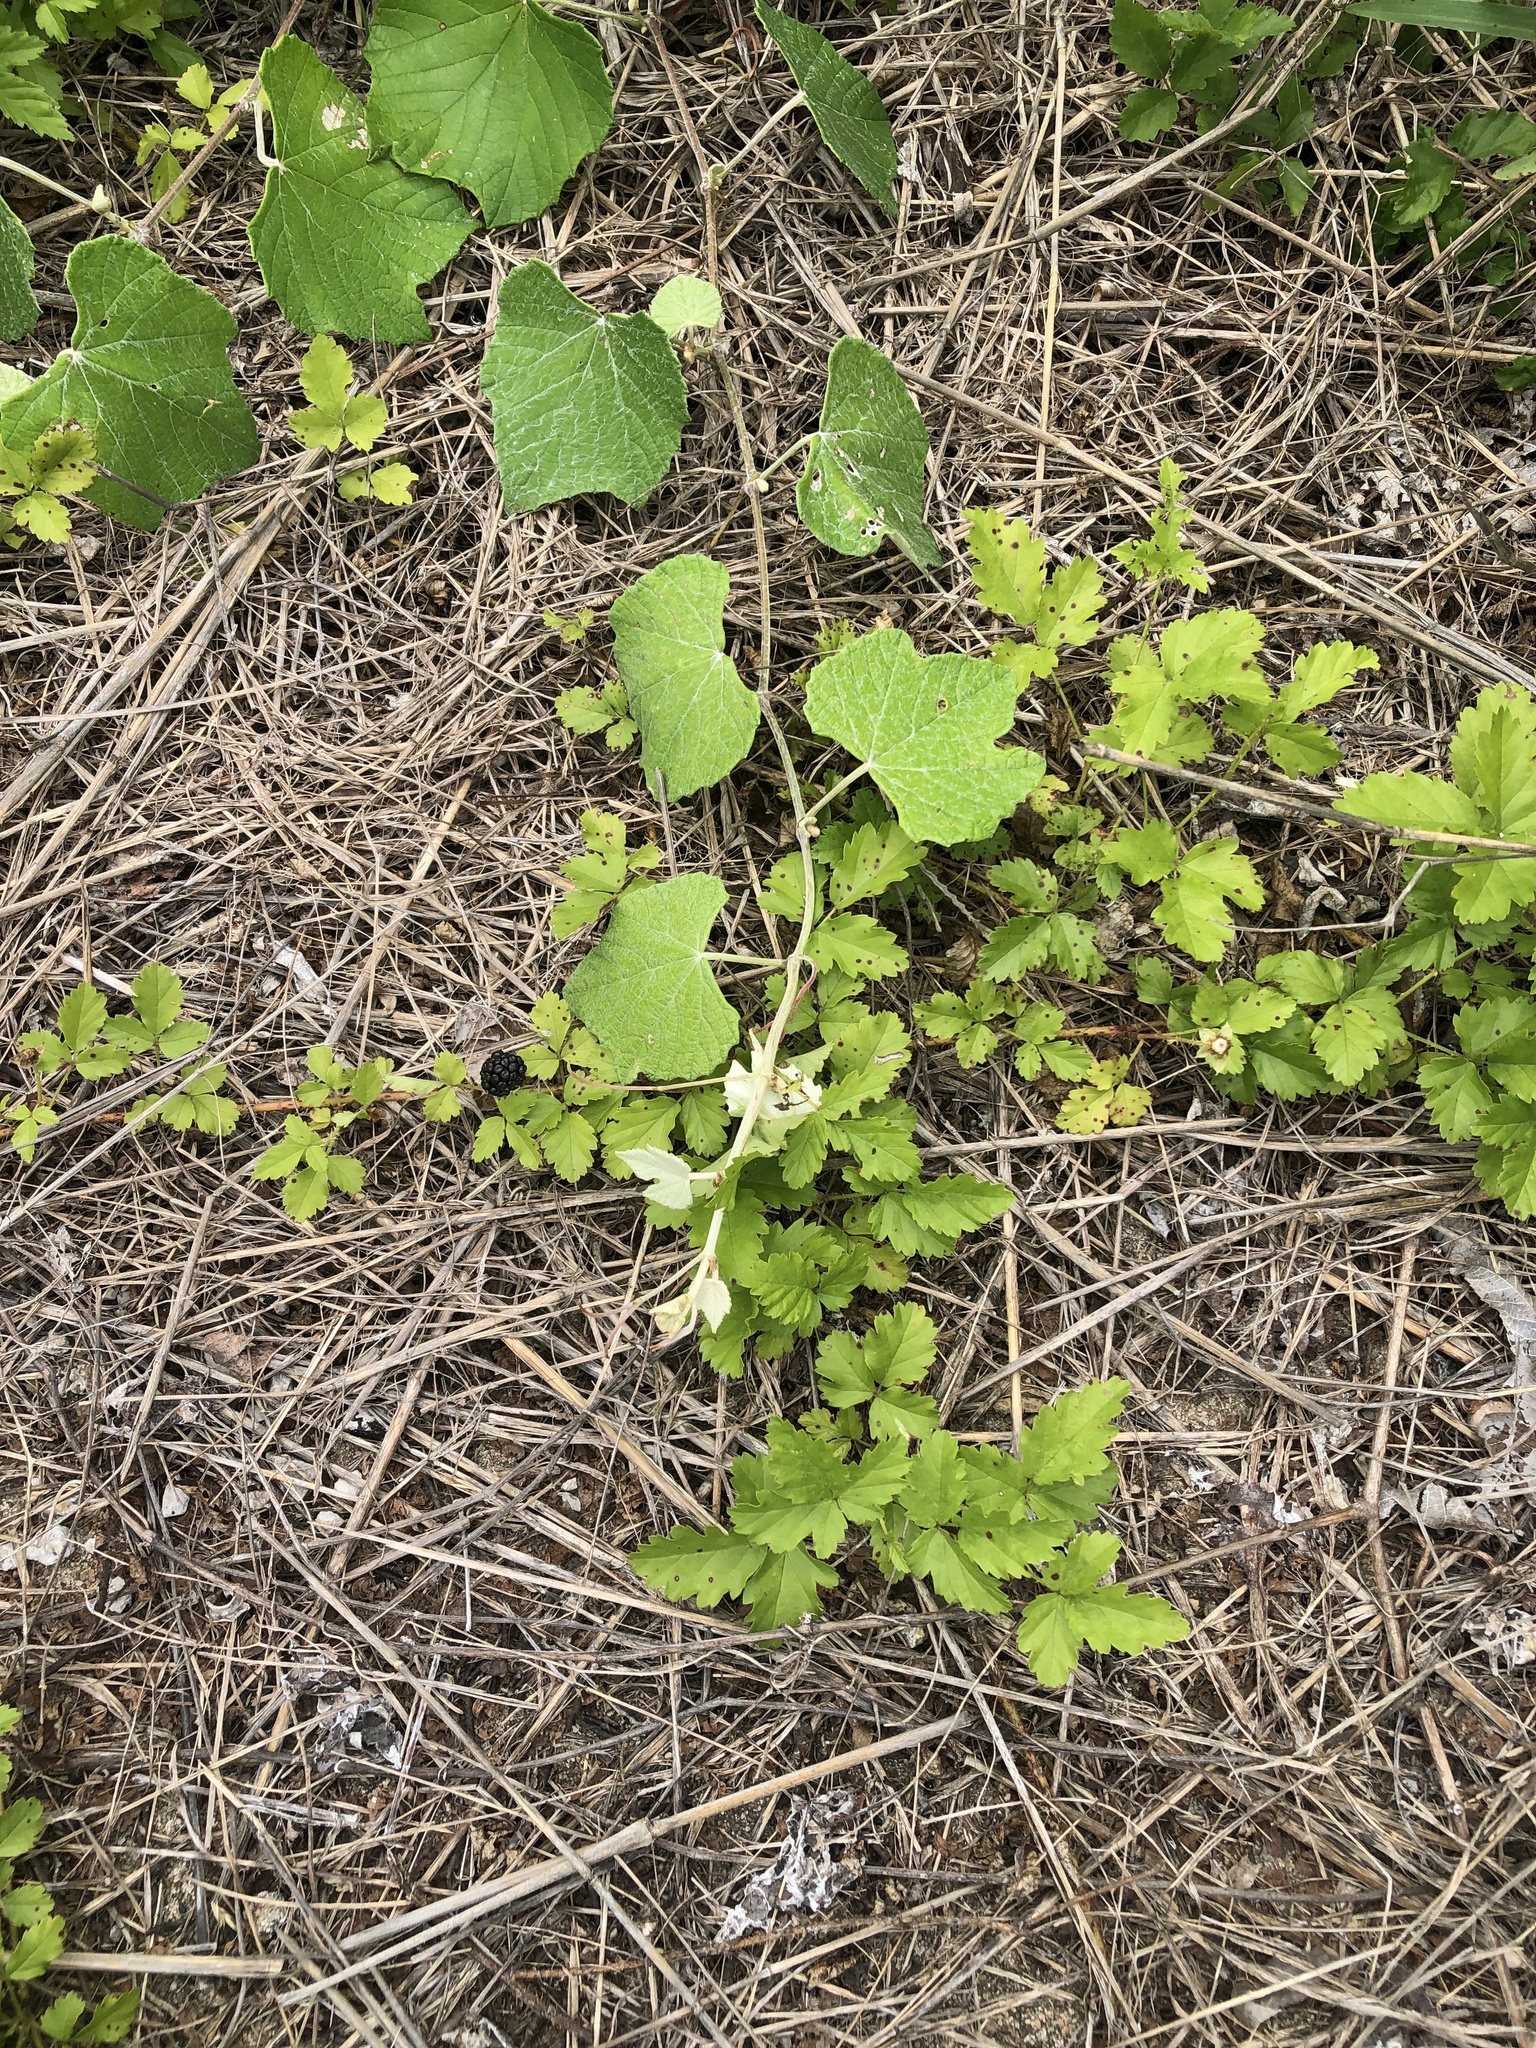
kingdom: Plantae
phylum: Tracheophyta
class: Magnoliopsida
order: Rosales
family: Rosaceae
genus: Rubus
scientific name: Rubus trivialis
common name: Southern dewberry
